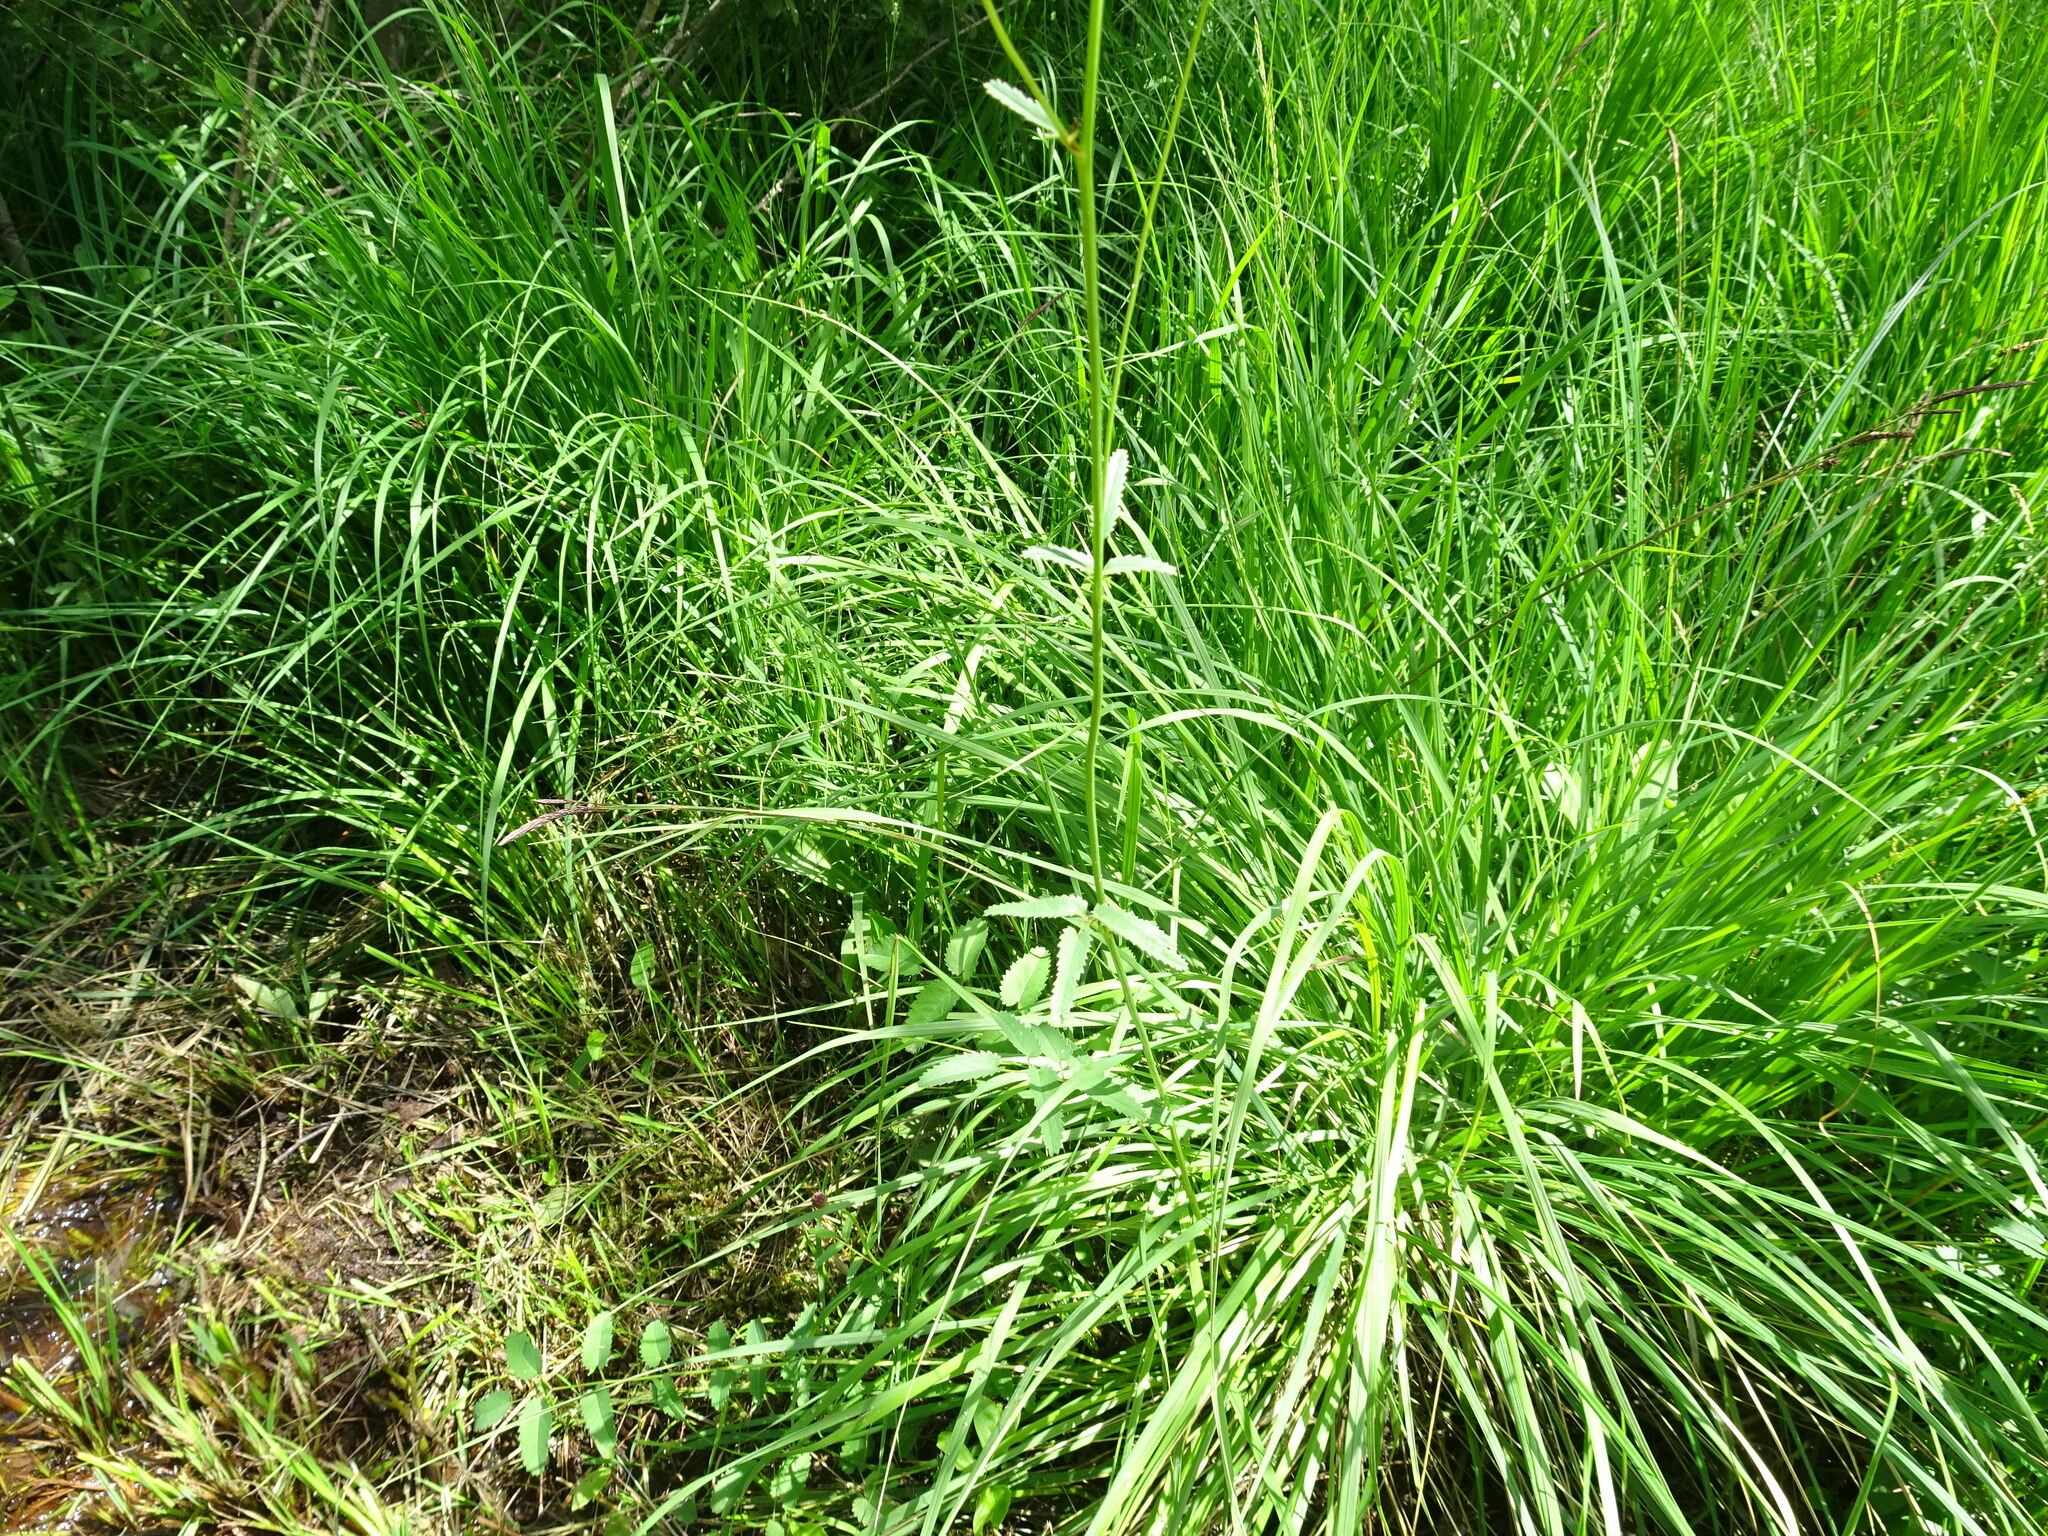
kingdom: Plantae
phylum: Tracheophyta
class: Magnoliopsida
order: Rosales
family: Rosaceae
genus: Sanguisorba
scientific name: Sanguisorba officinalis
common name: Great burnet
